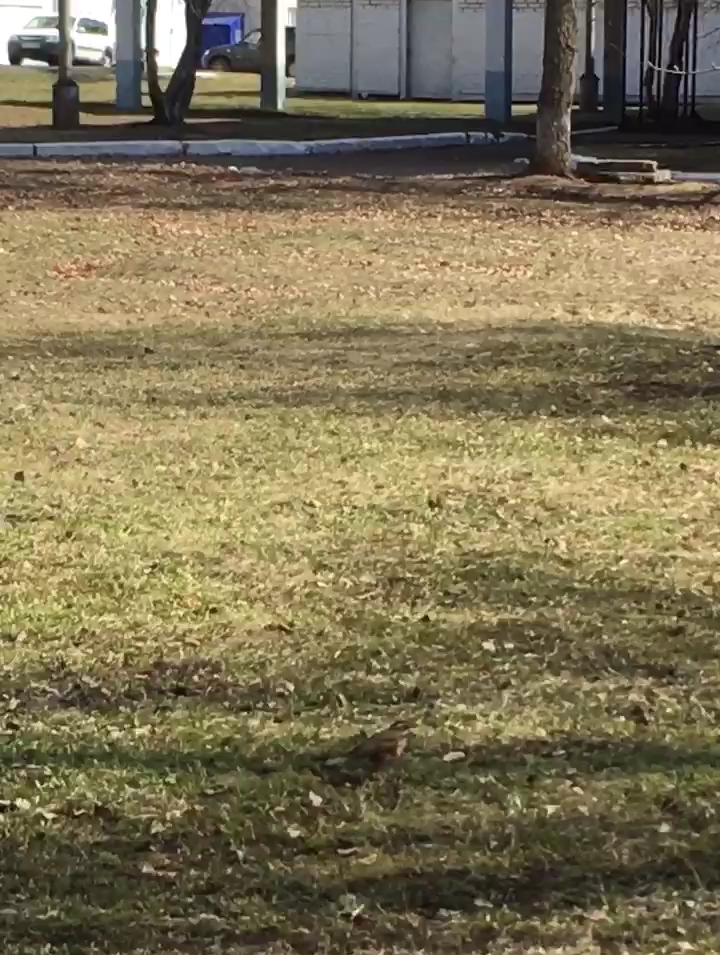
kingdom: Animalia
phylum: Chordata
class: Aves
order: Passeriformes
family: Turdidae
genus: Turdus
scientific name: Turdus iliacus
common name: Redwing
